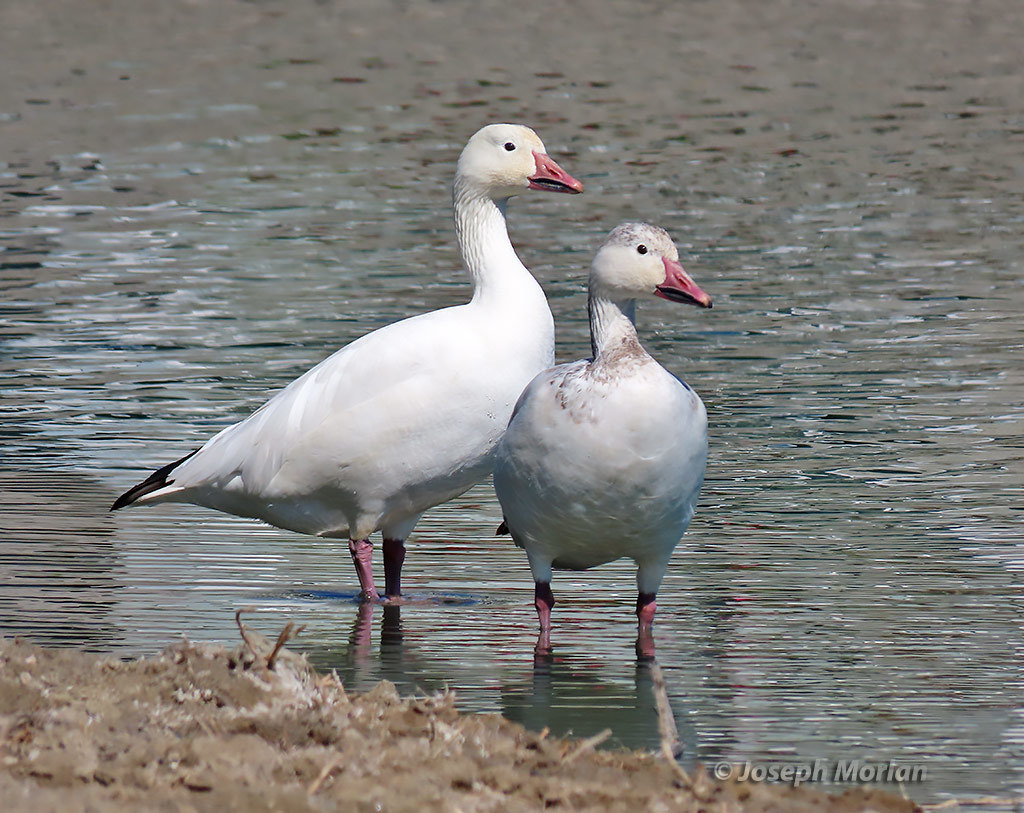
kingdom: Animalia
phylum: Chordata
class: Aves
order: Anseriformes
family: Anatidae
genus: Anser
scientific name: Anser caerulescens
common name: Snow goose
